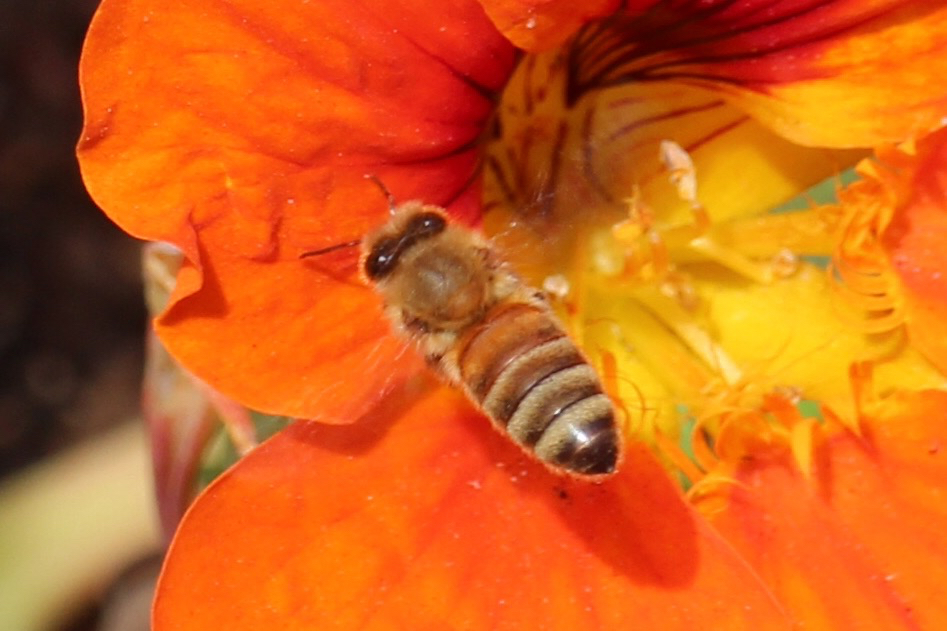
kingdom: Animalia
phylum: Arthropoda
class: Insecta
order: Hymenoptera
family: Apidae
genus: Apis
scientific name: Apis mellifera
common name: Honey bee
